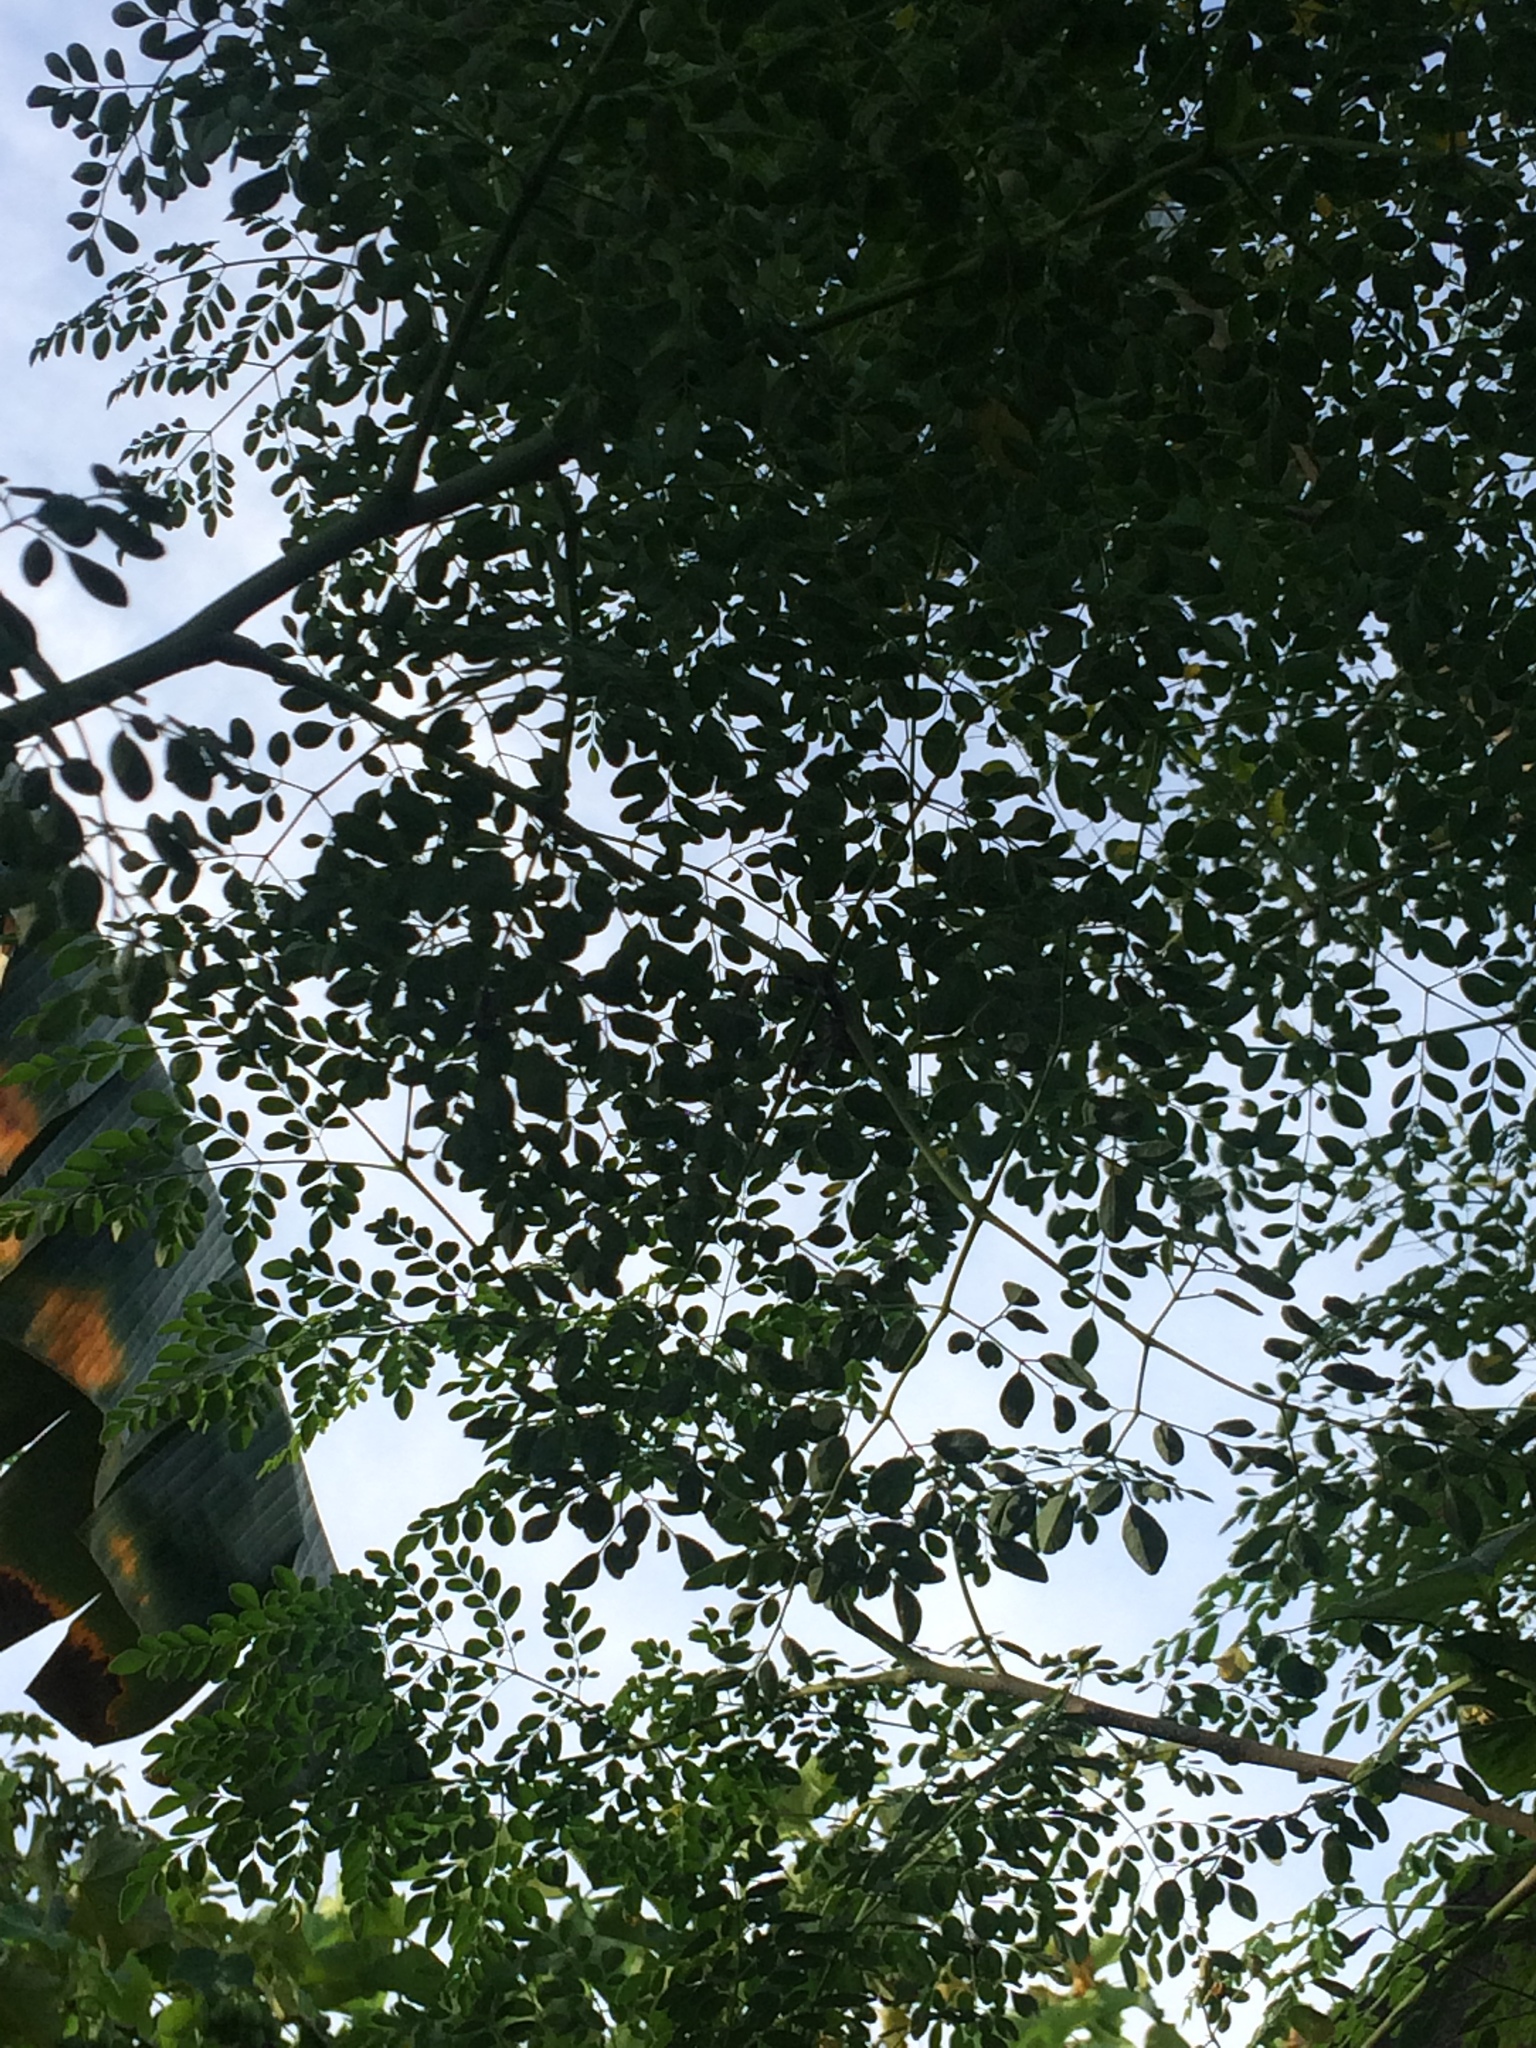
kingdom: Plantae
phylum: Tracheophyta
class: Magnoliopsida
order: Brassicales
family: Moringaceae
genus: Moringa
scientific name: Moringa oleifera
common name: Horseradish-tree
